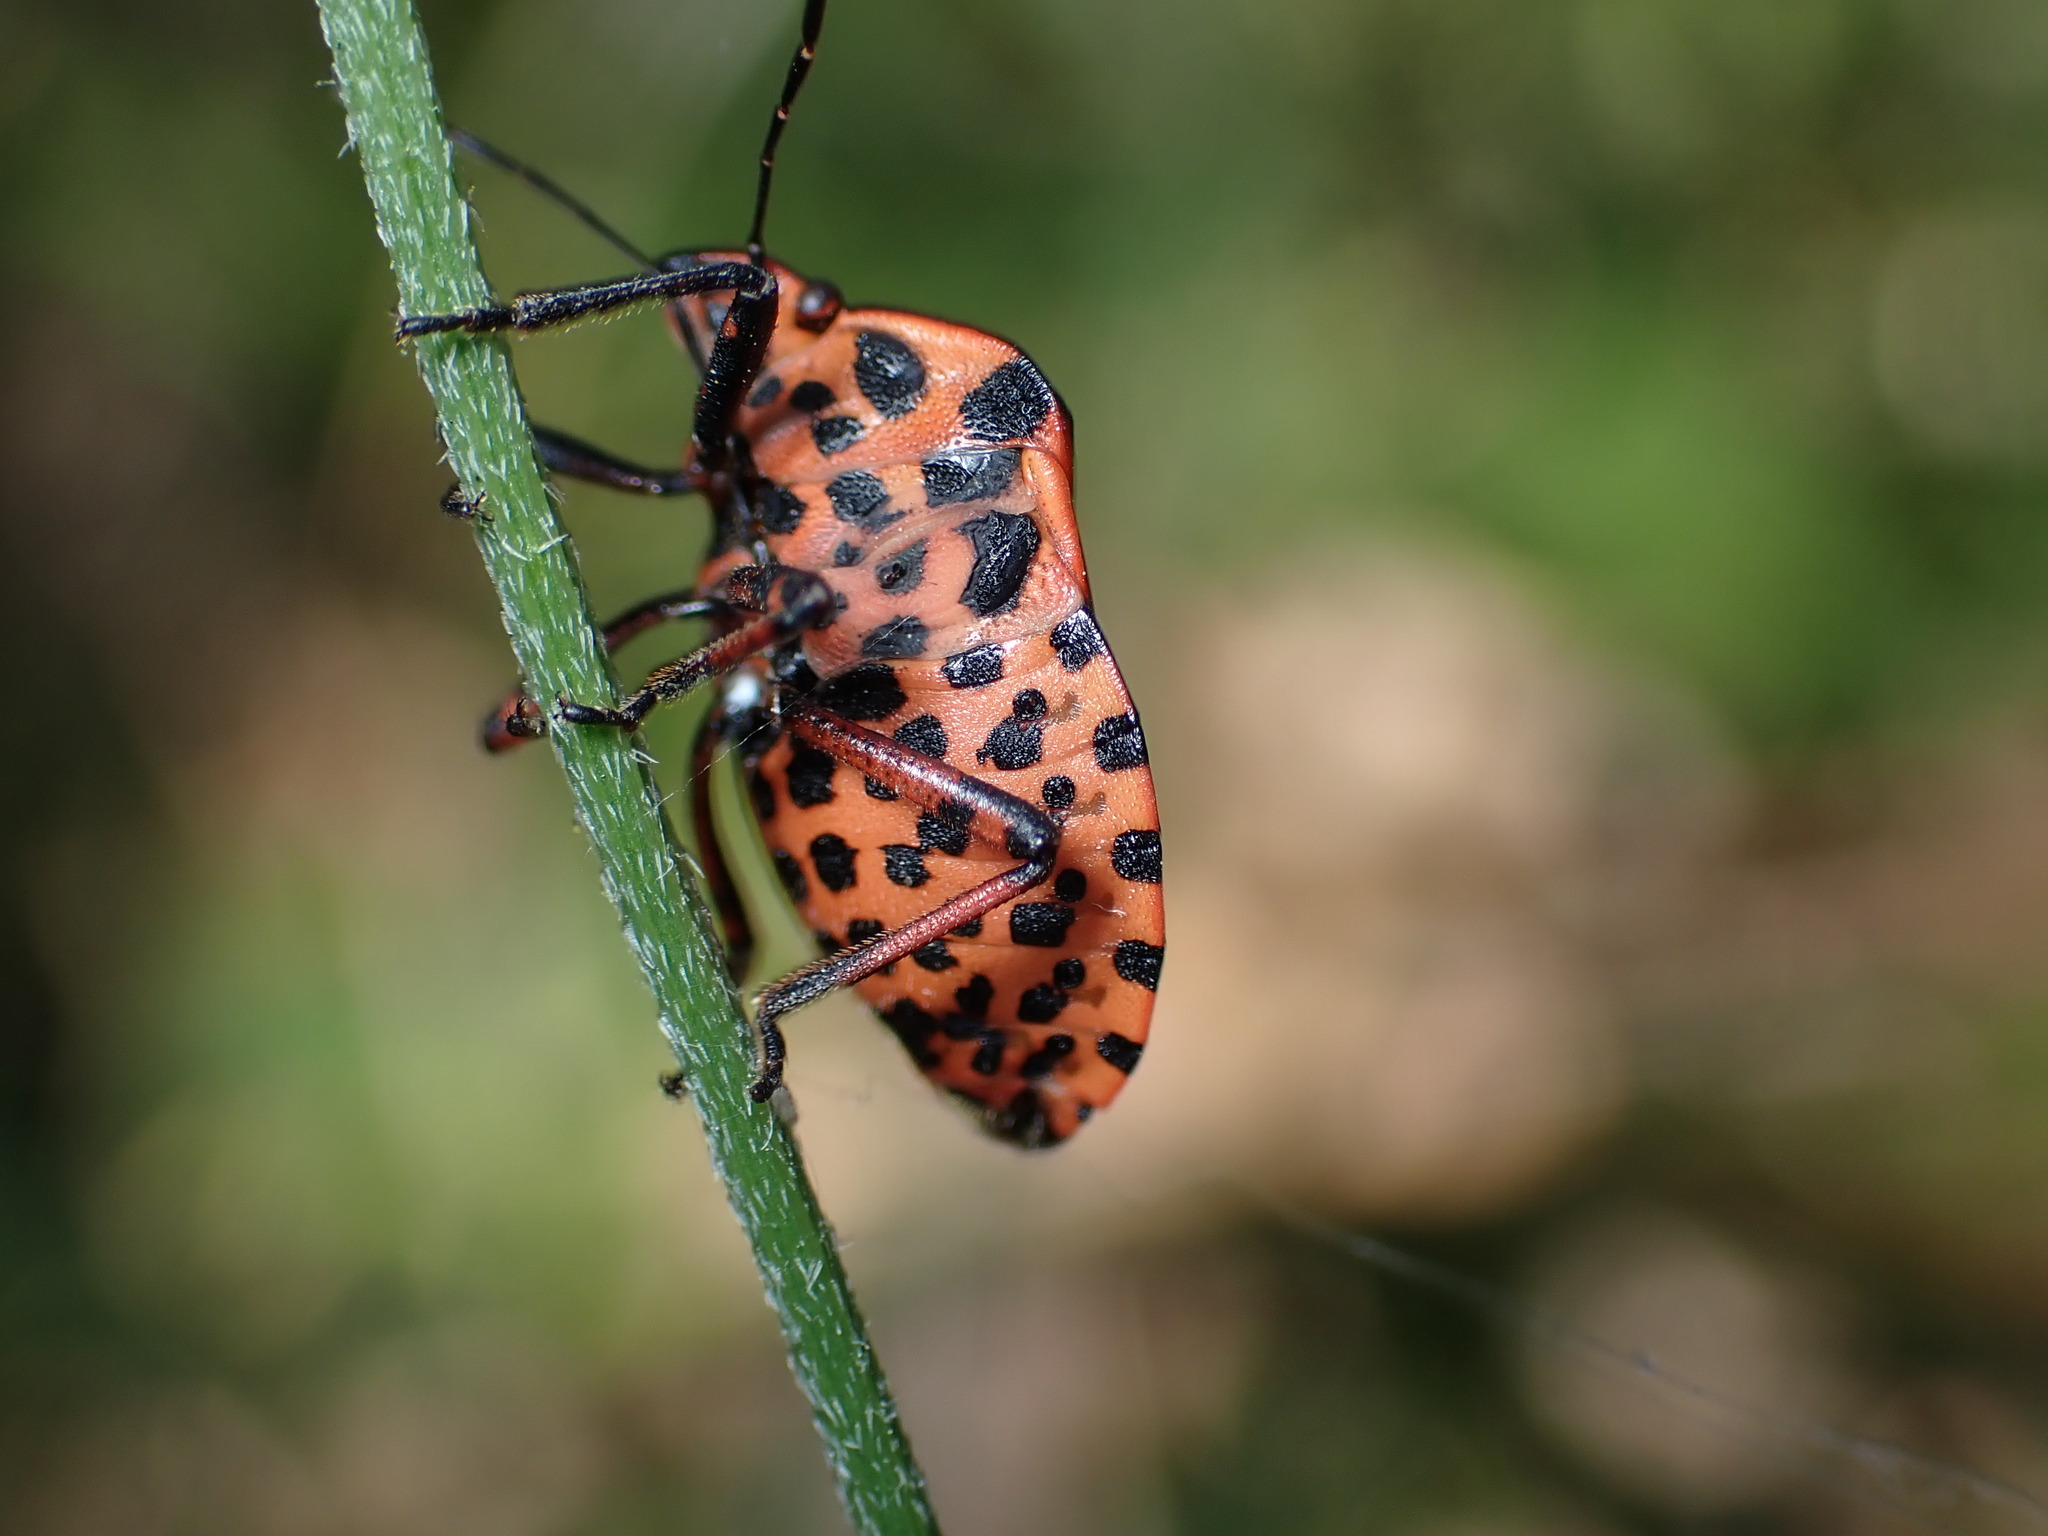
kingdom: Animalia
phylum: Arthropoda
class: Insecta
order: Hemiptera
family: Pentatomidae
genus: Graphosoma
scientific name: Graphosoma italicum
